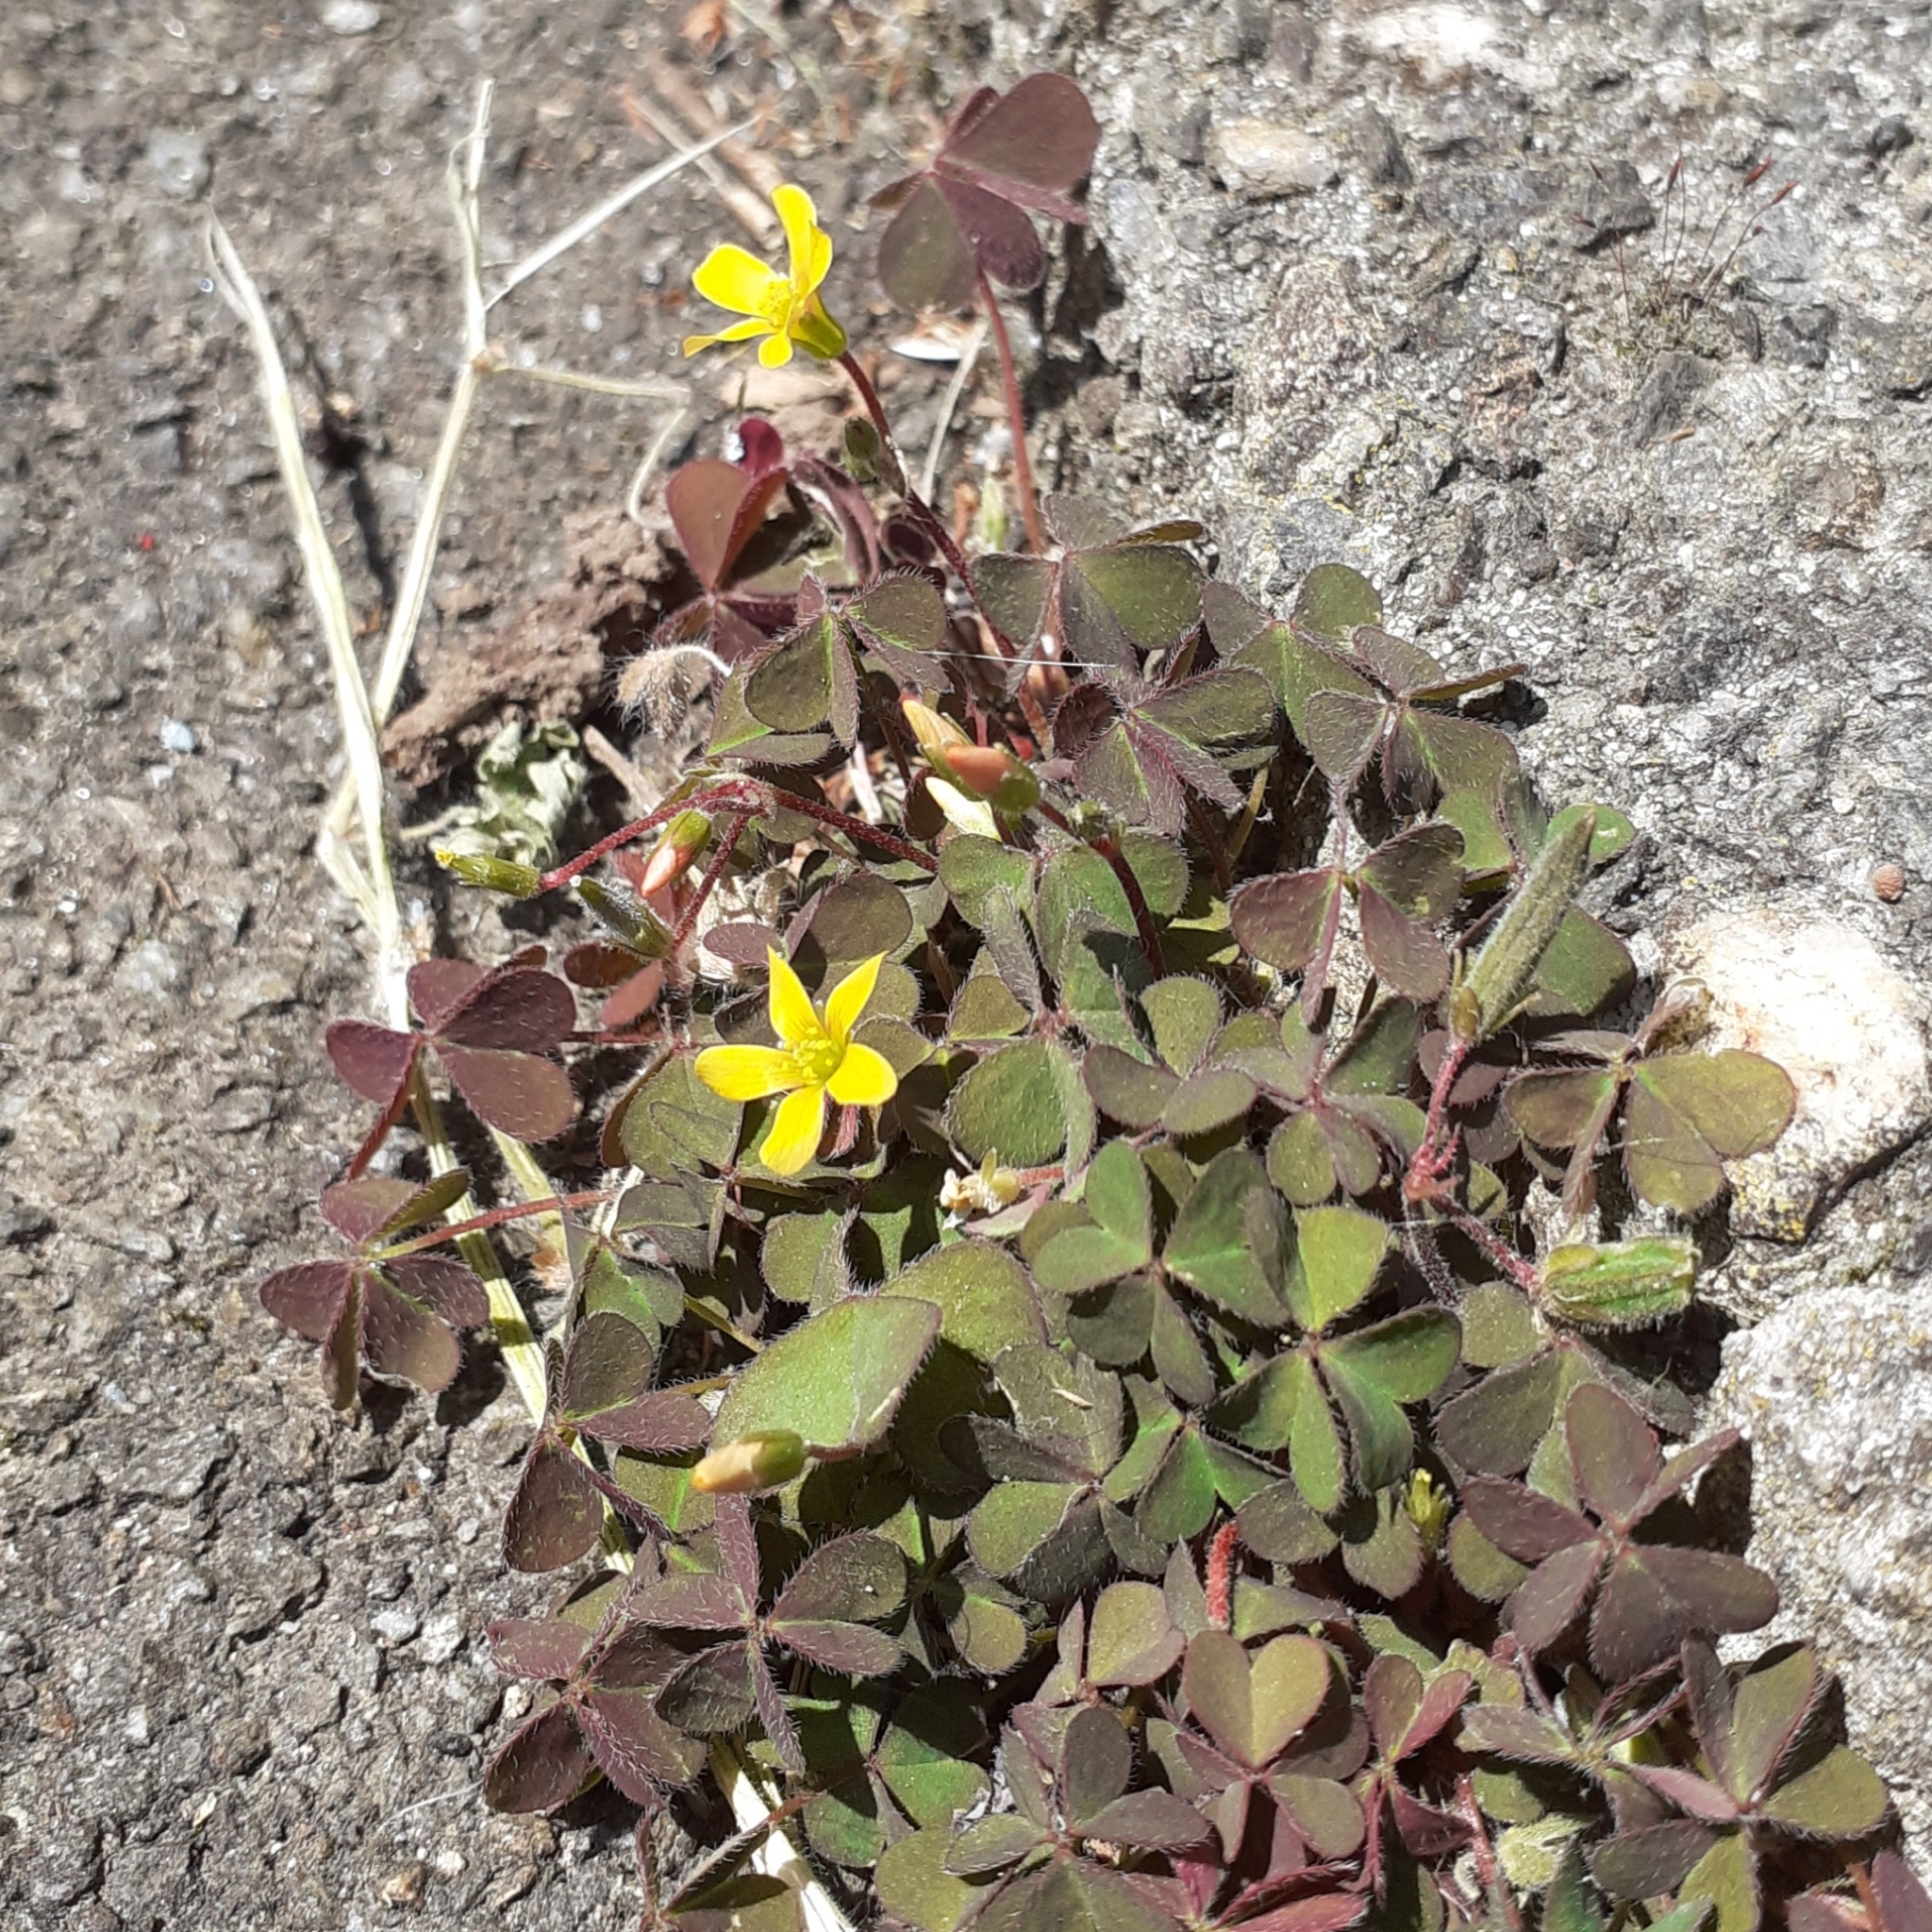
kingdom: Plantae
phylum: Tracheophyta
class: Magnoliopsida
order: Oxalidales
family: Oxalidaceae
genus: Oxalis
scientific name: Oxalis corniculata
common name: Procumbent yellow-sorrel
